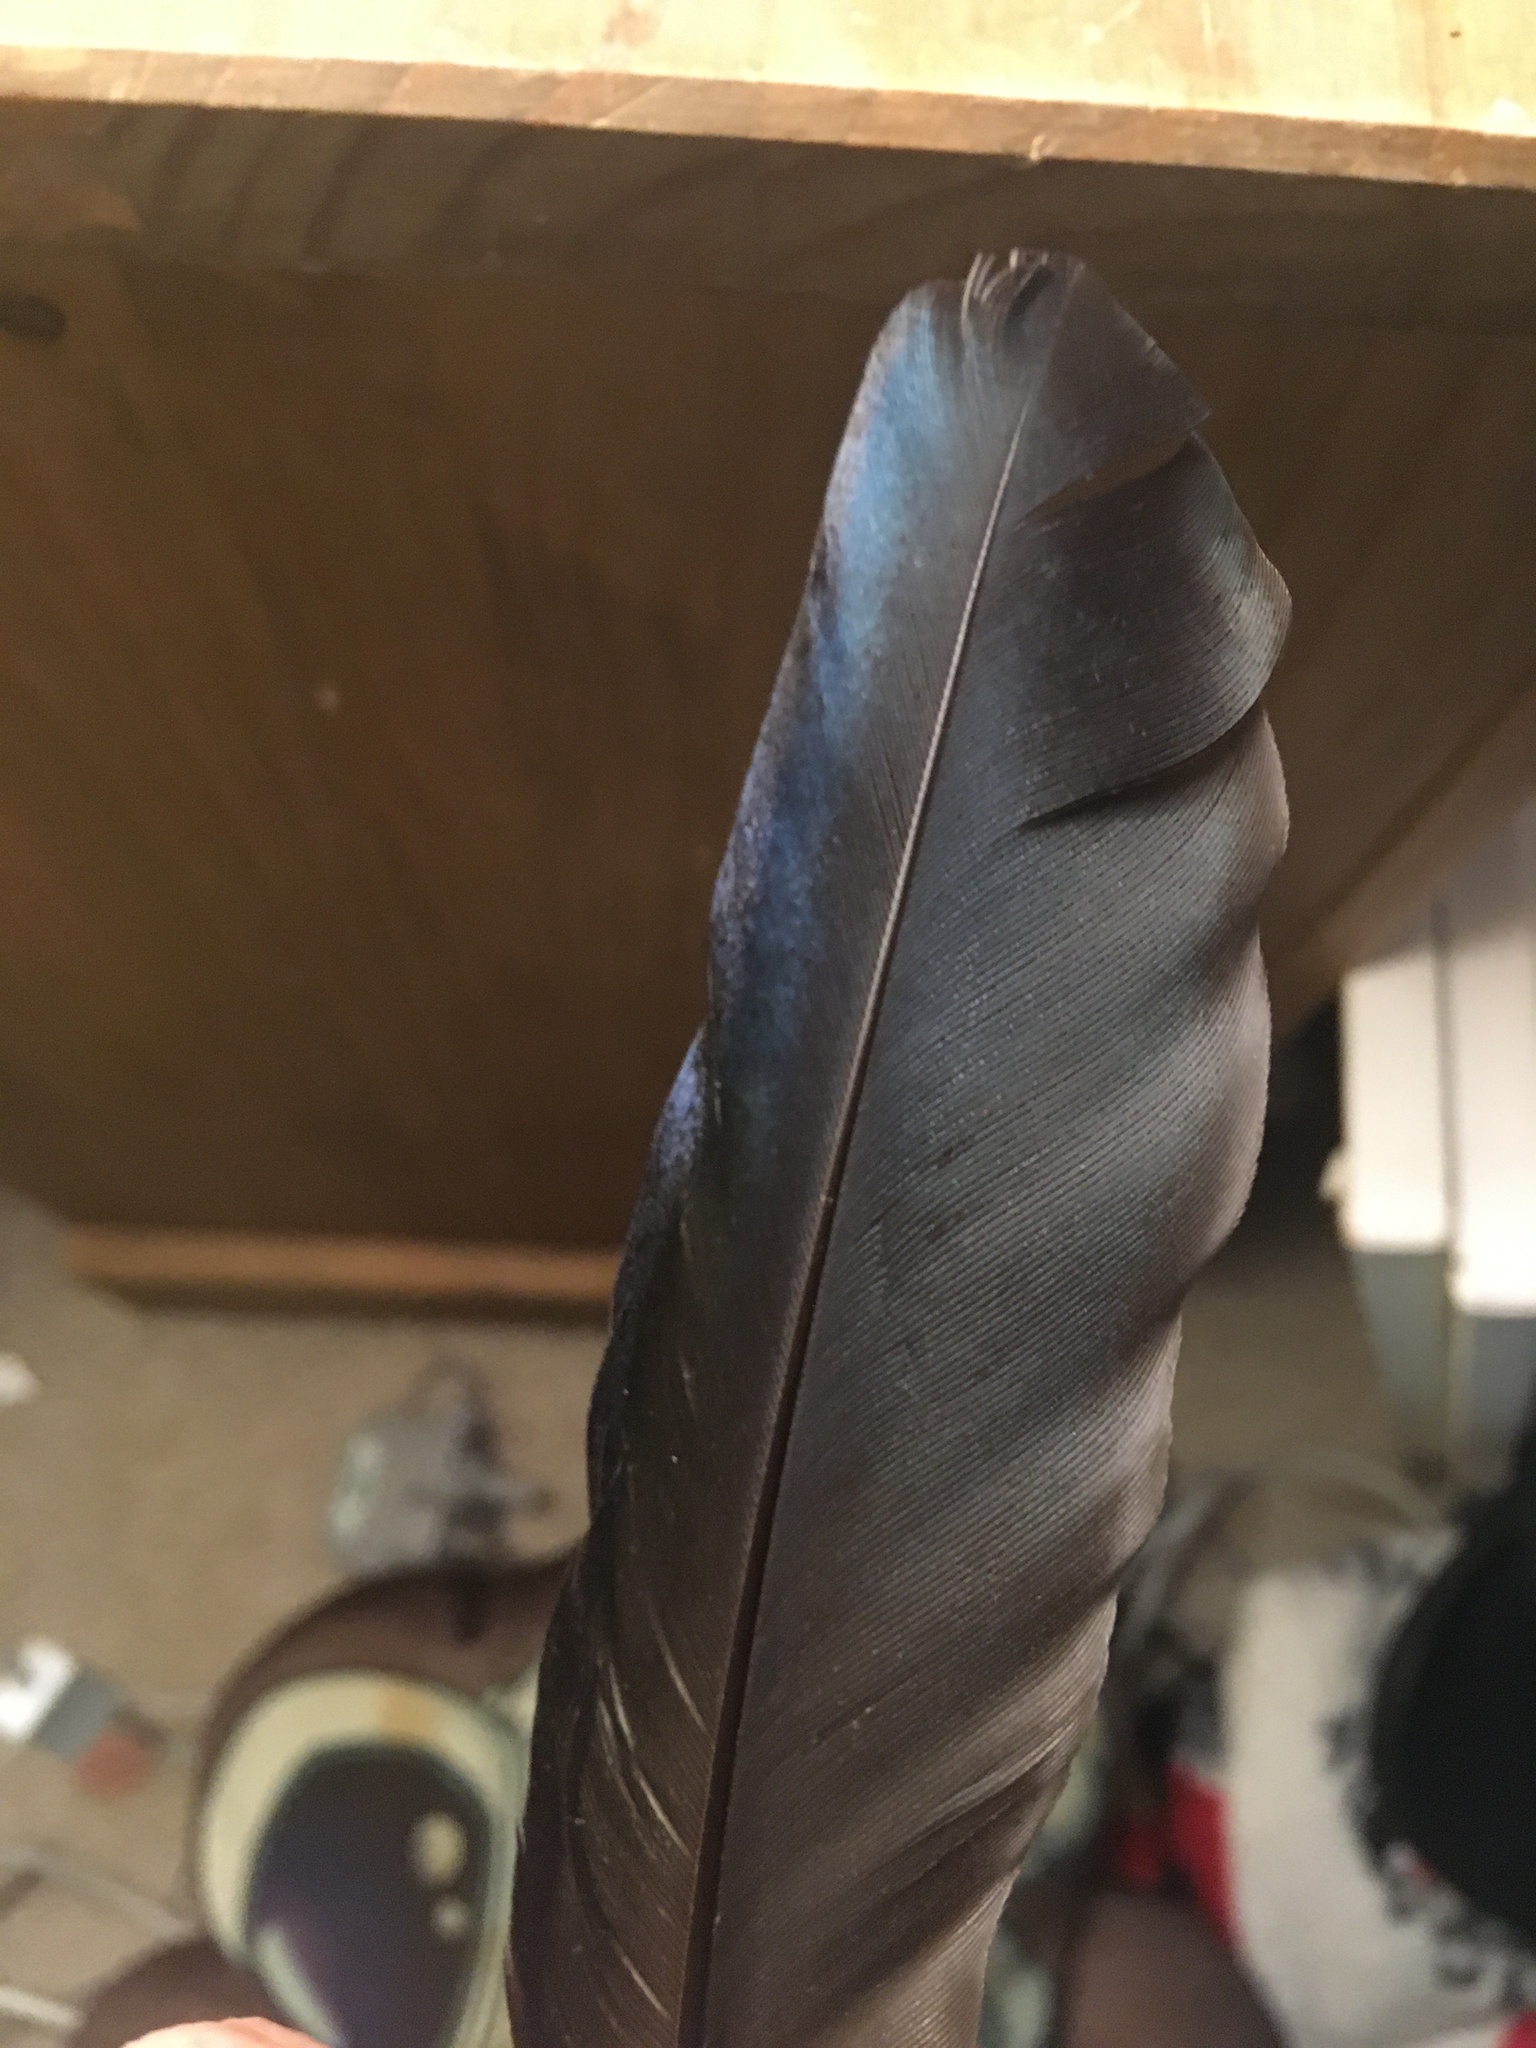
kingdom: Animalia
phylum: Chordata
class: Aves
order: Passeriformes
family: Corvidae
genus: Pica
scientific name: Pica pica
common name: Eurasian magpie
